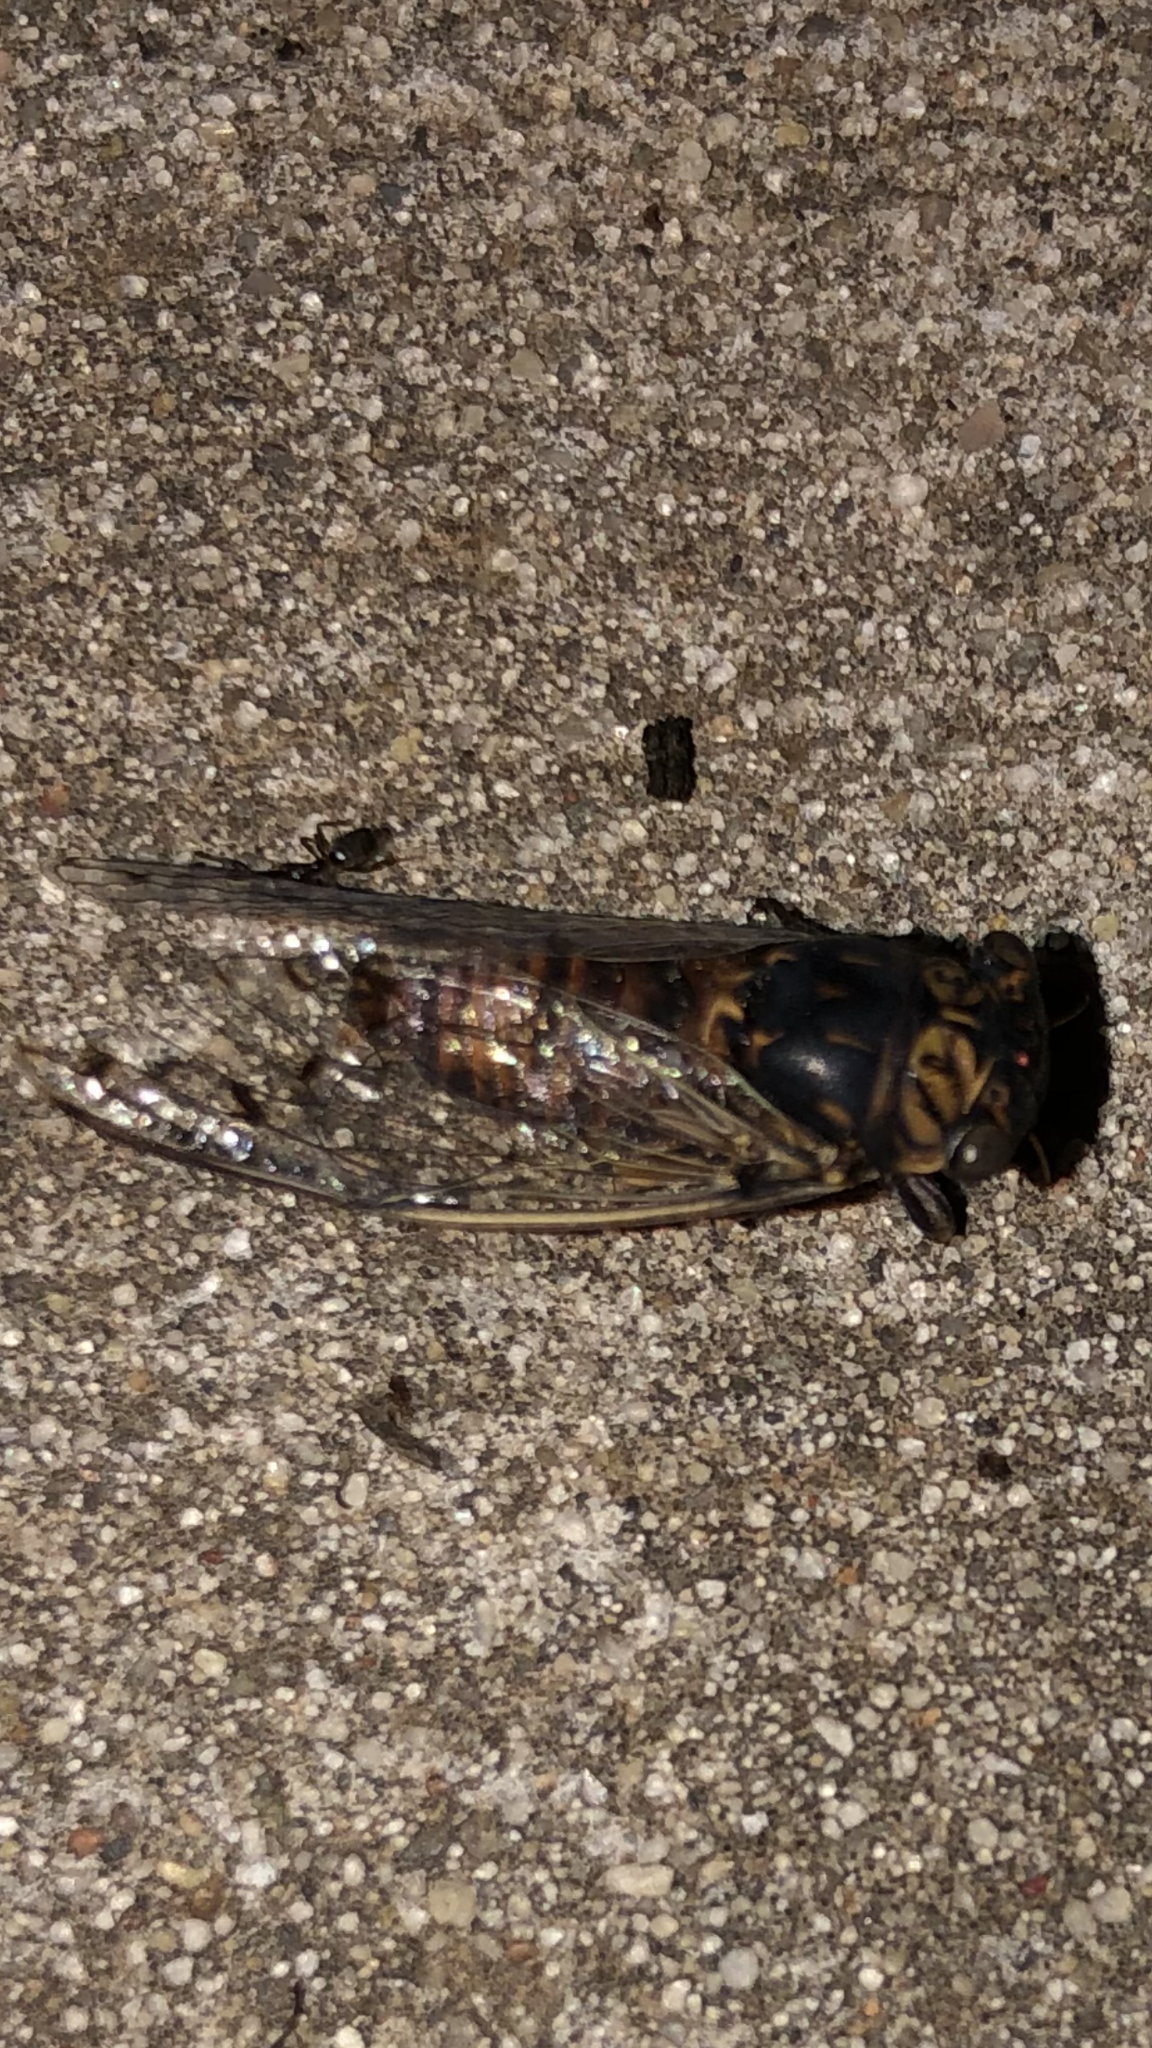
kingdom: Animalia
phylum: Arthropoda
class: Insecta
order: Hemiptera
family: Cicadidae
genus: Pacarina
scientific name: Pacarina puella
